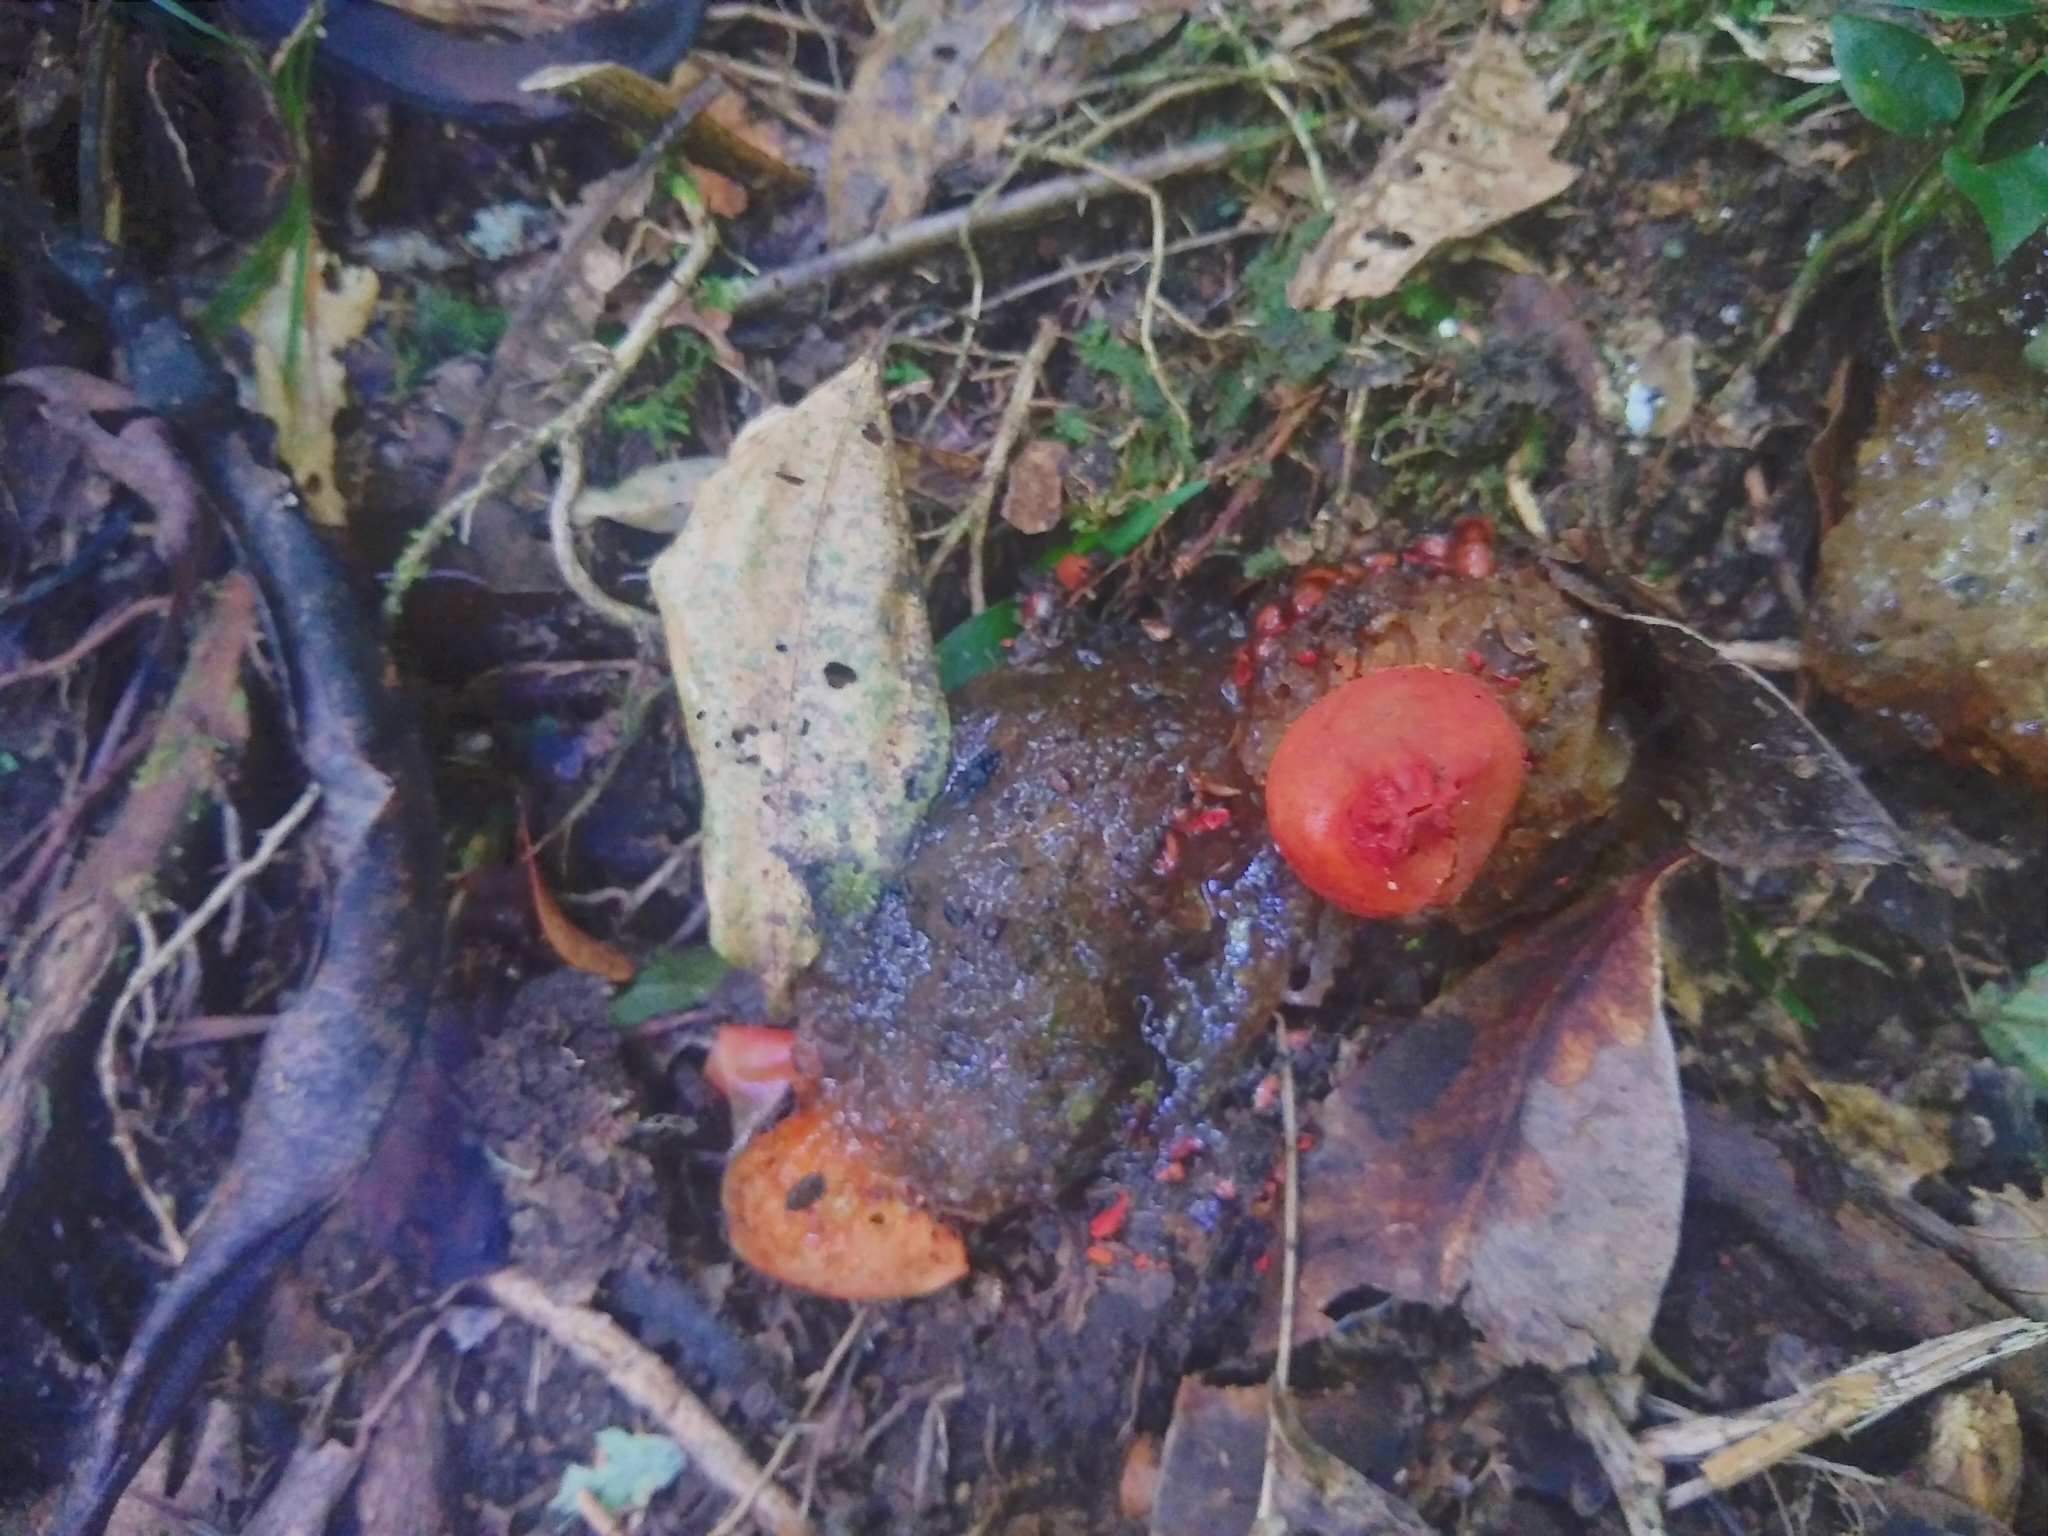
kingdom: Fungi
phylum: Basidiomycota
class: Agaricomycetes
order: Boletales
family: Calostomataceae
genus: Calostoma
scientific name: Calostoma cinnabarinum
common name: Stalked puffball-in-aspic
